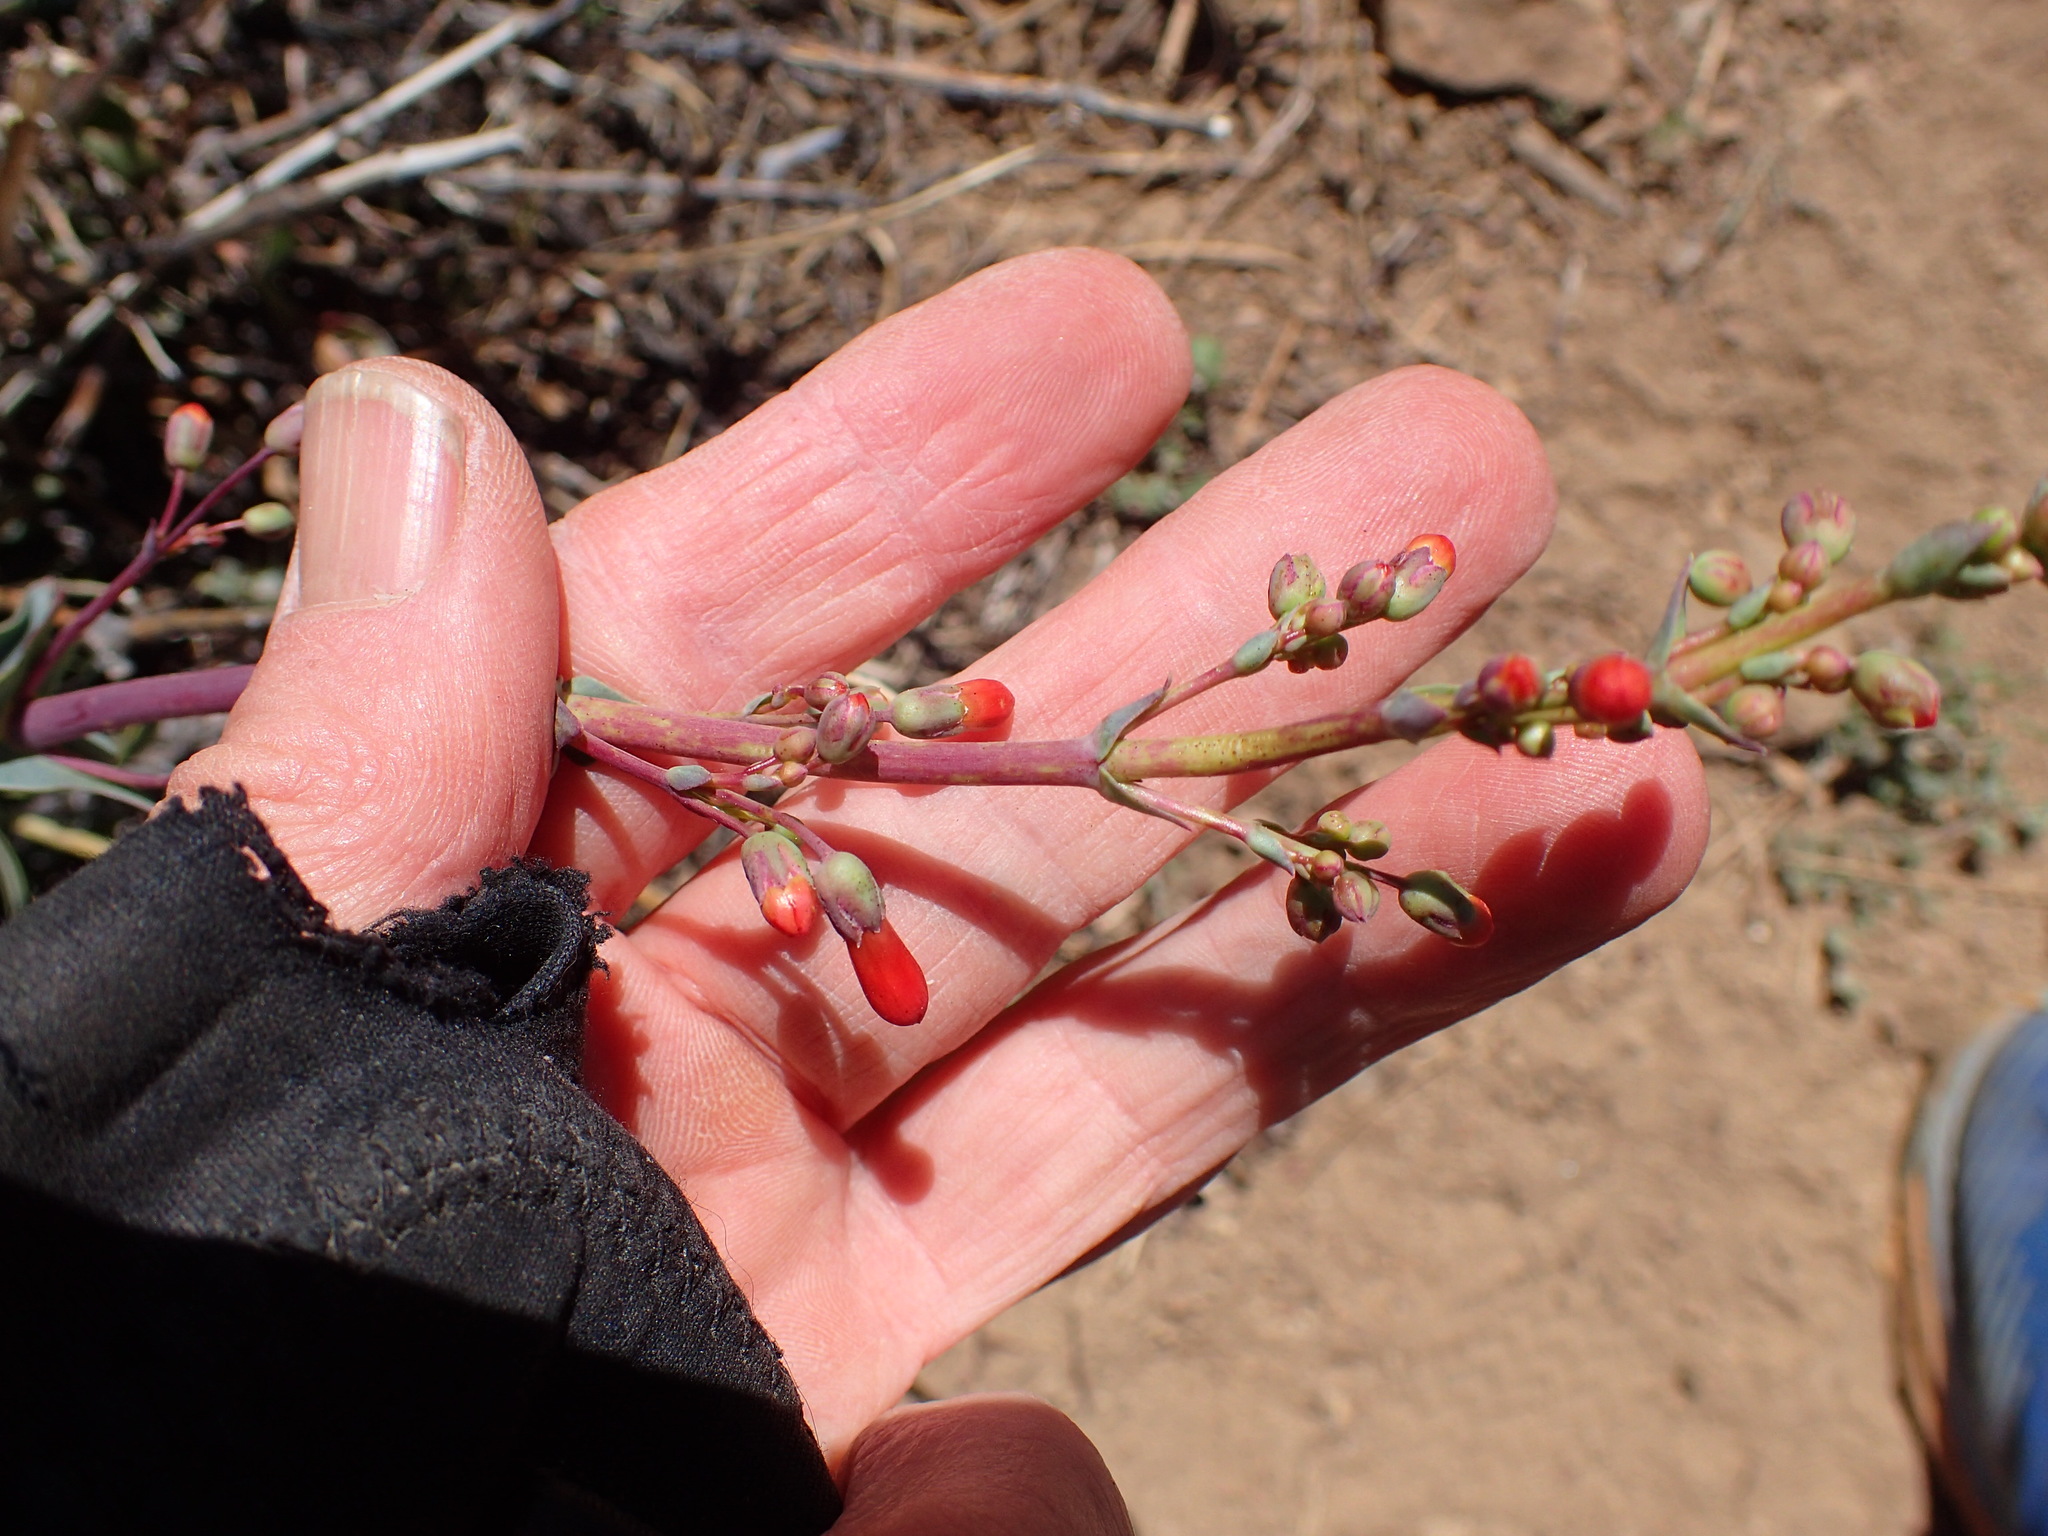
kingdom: Plantae
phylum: Tracheophyta
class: Magnoliopsida
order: Lamiales
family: Plantaginaceae
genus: Penstemon
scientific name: Penstemon centranthifolius
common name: Scarlet bugler
